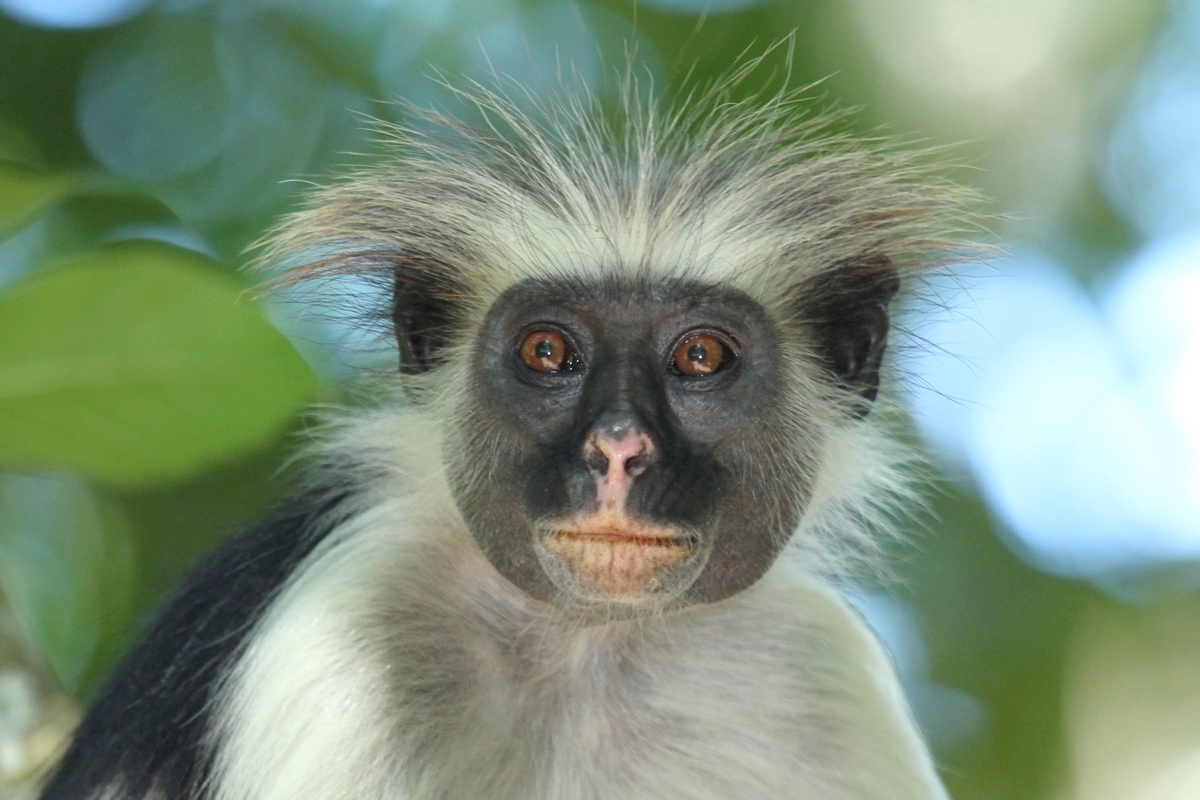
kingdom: Animalia
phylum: Chordata
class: Mammalia
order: Primates
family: Cercopithecidae
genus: Piliocolobus
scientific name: Piliocolobus kirkii
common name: Zanzibar red colobus
